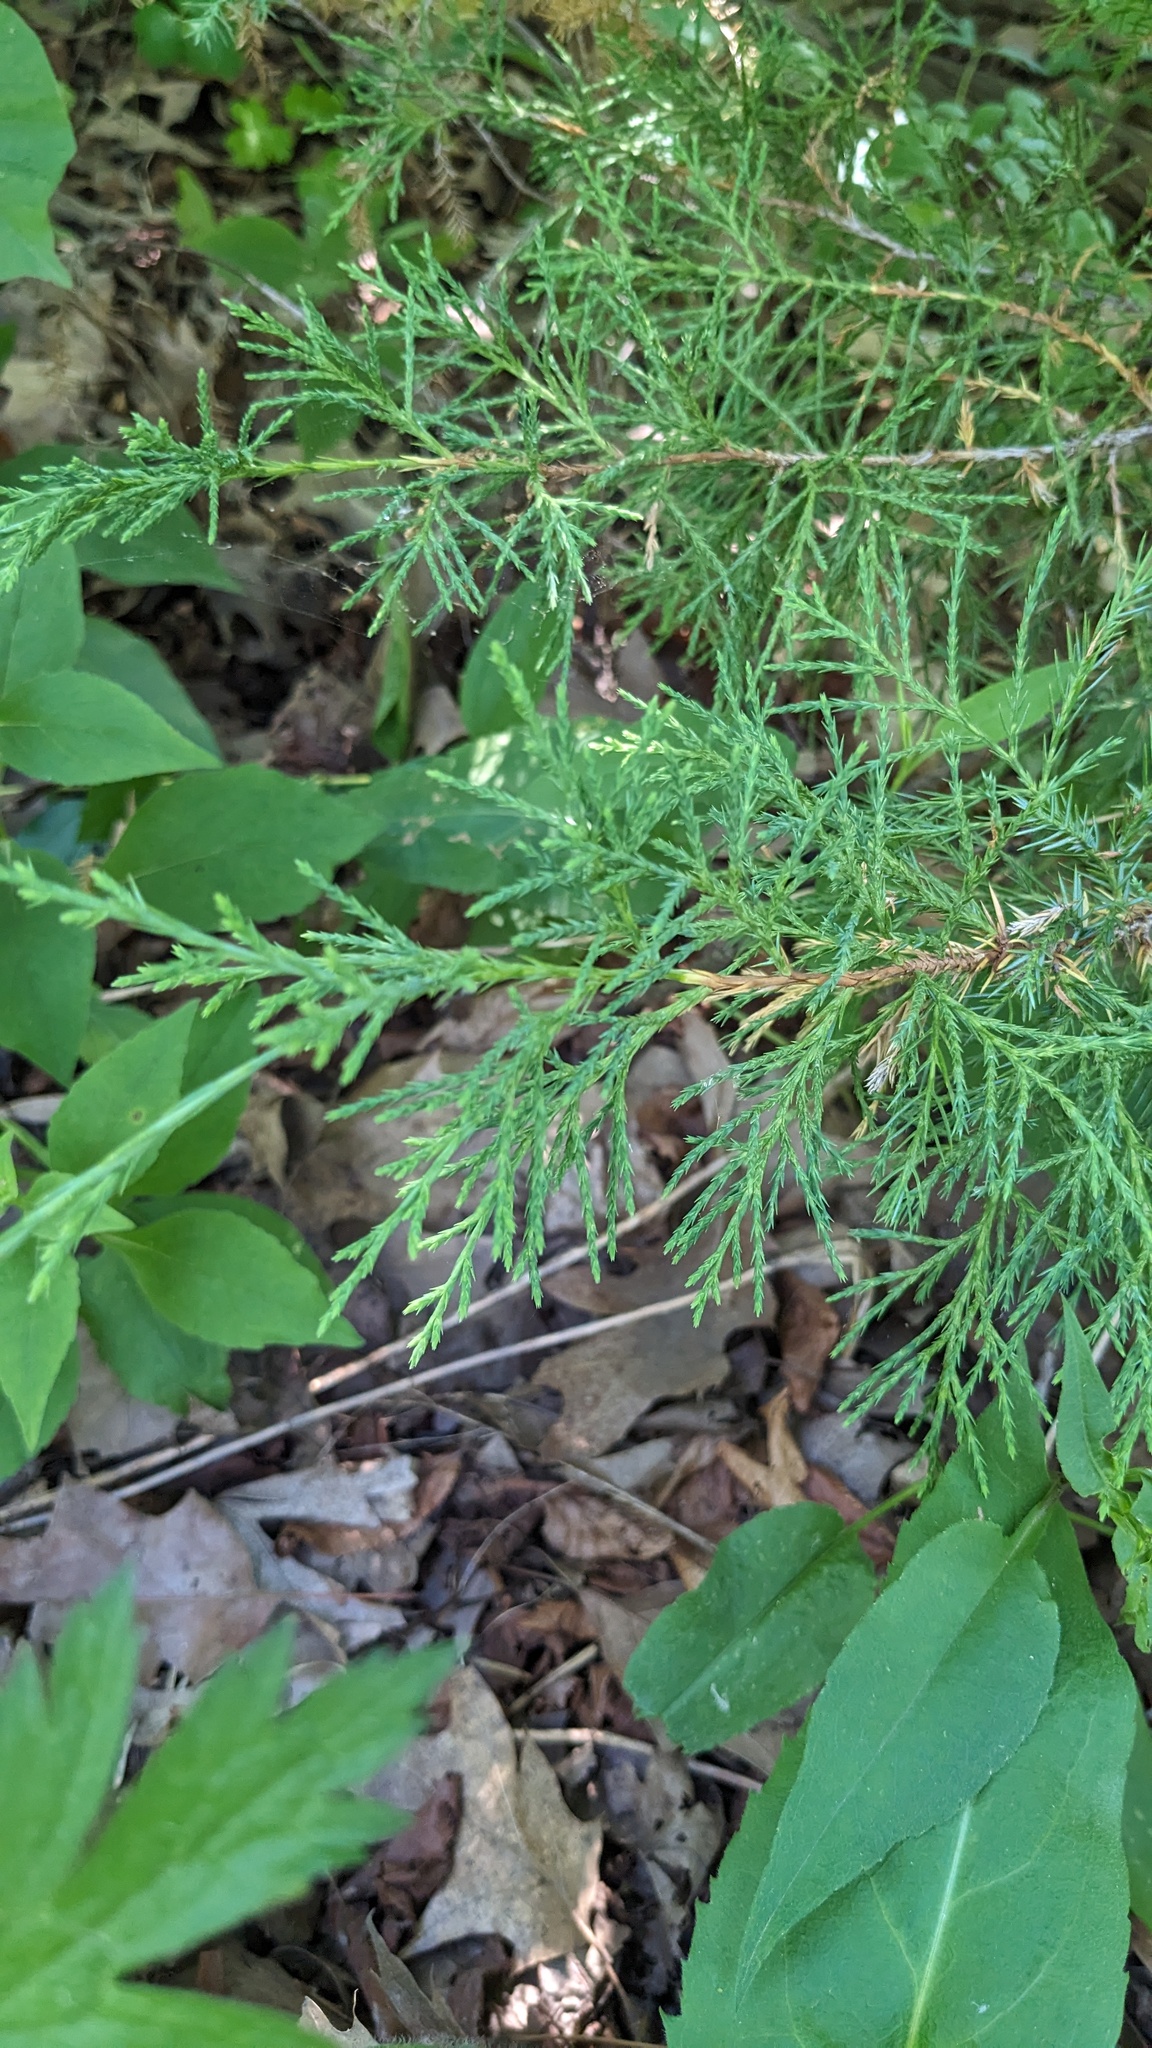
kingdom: Plantae
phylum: Tracheophyta
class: Pinopsida
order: Pinales
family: Cupressaceae
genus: Juniperus
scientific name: Juniperus virginiana
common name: Red juniper
